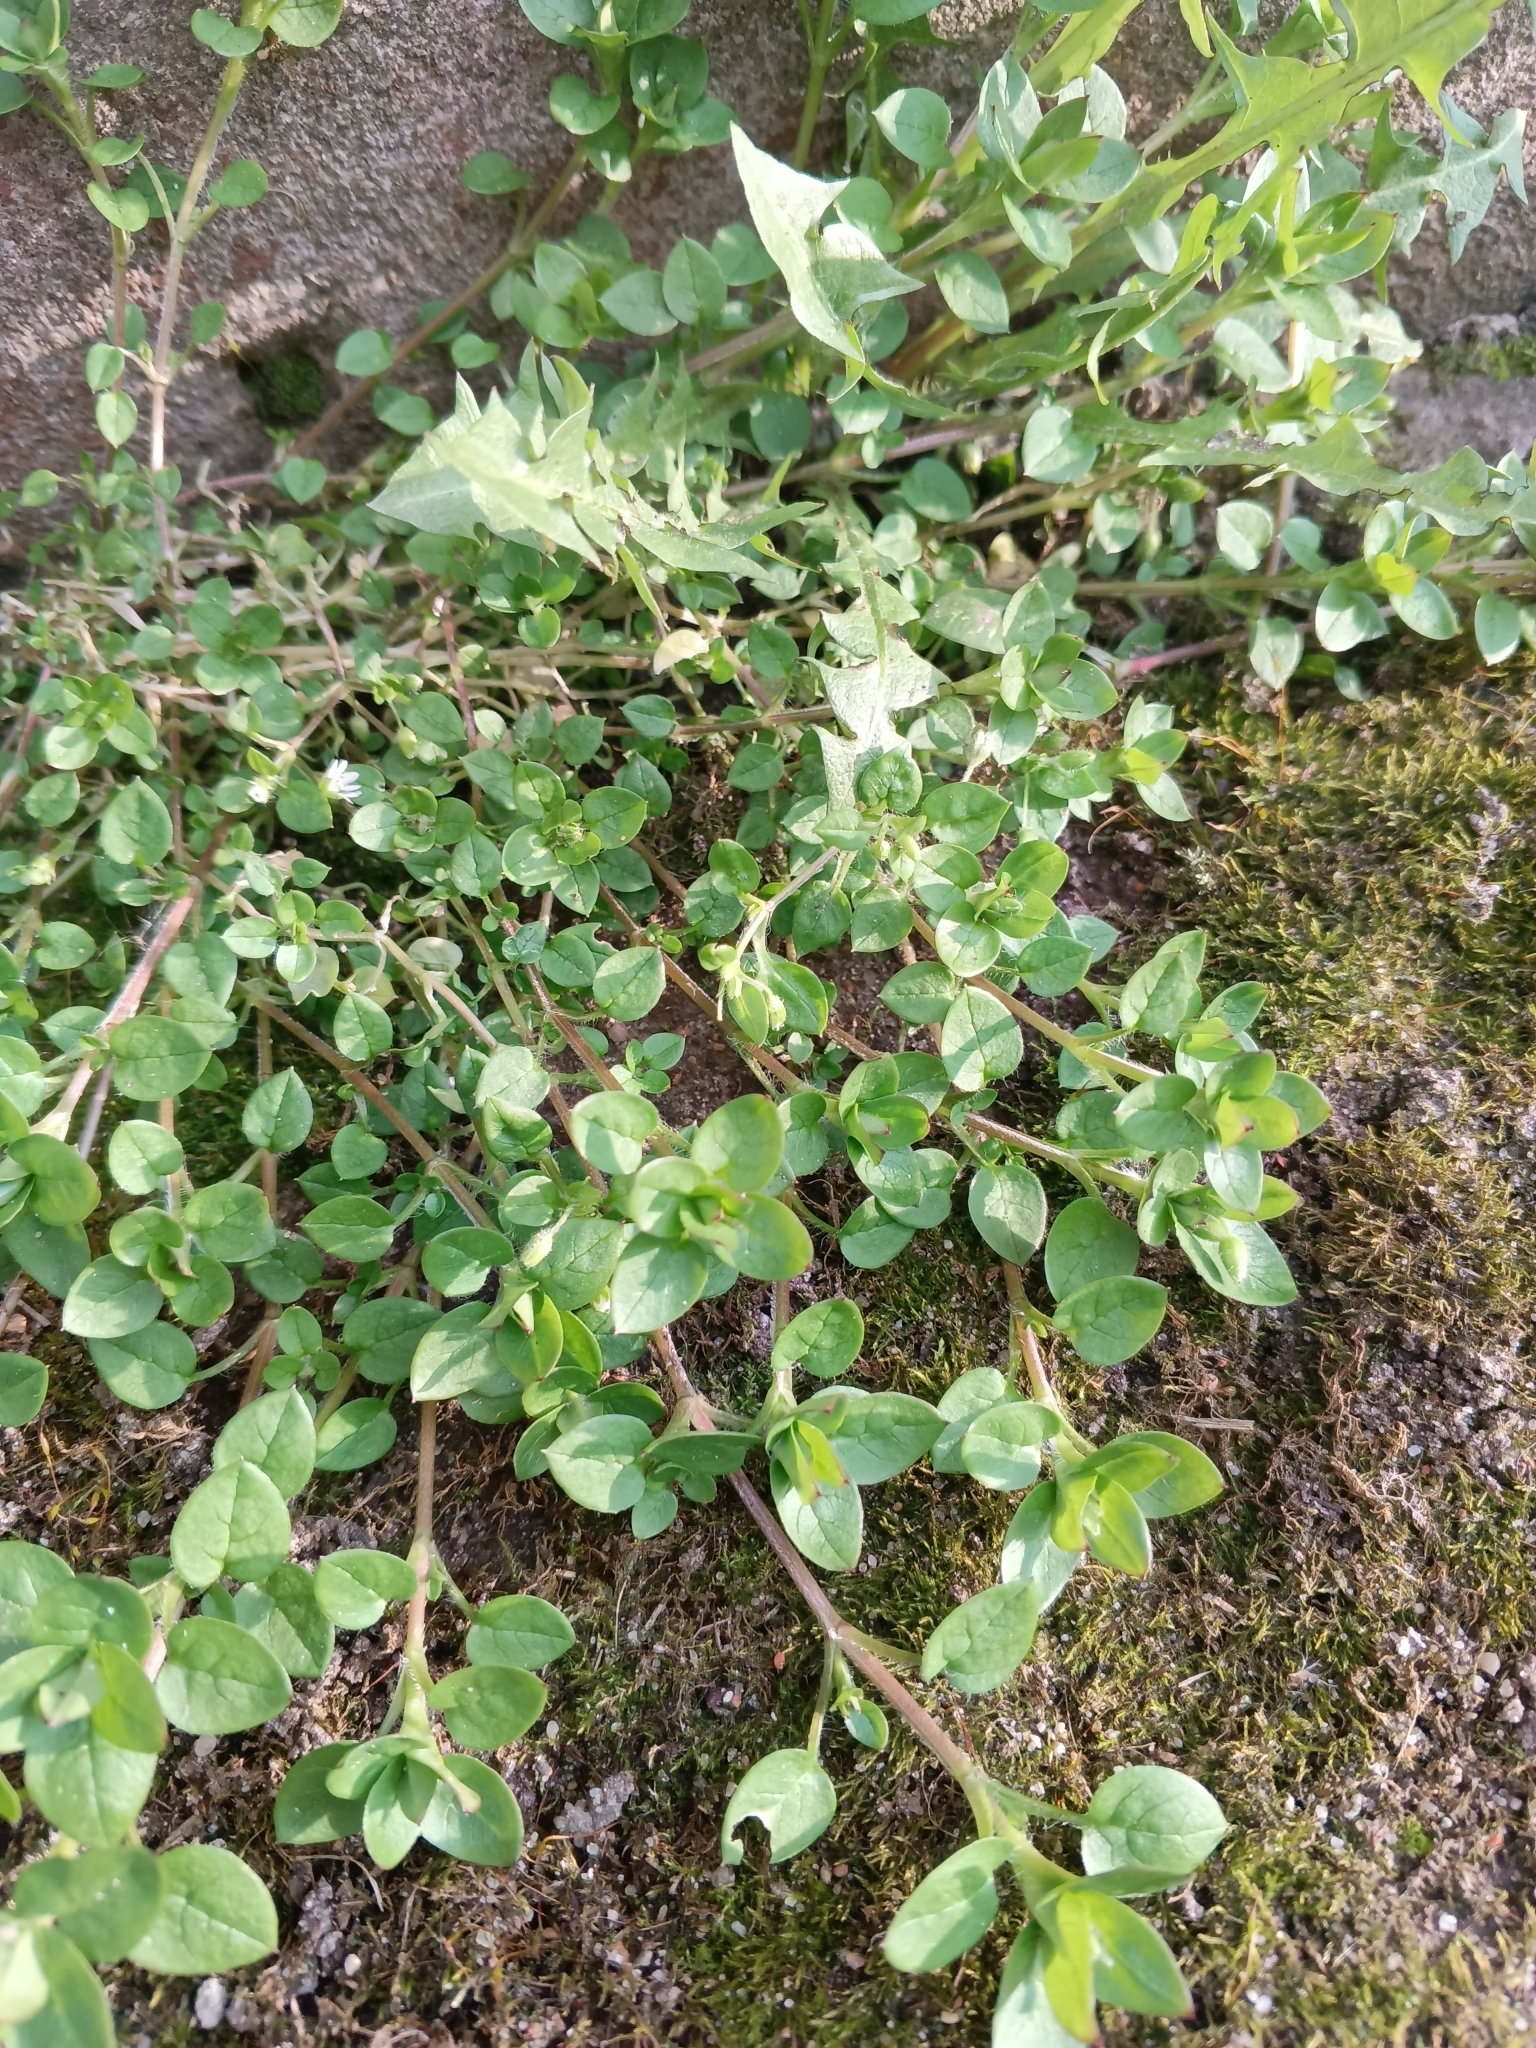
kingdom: Plantae
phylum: Tracheophyta
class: Magnoliopsida
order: Caryophyllales
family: Caryophyllaceae
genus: Stellaria
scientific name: Stellaria media
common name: Common chickweed
